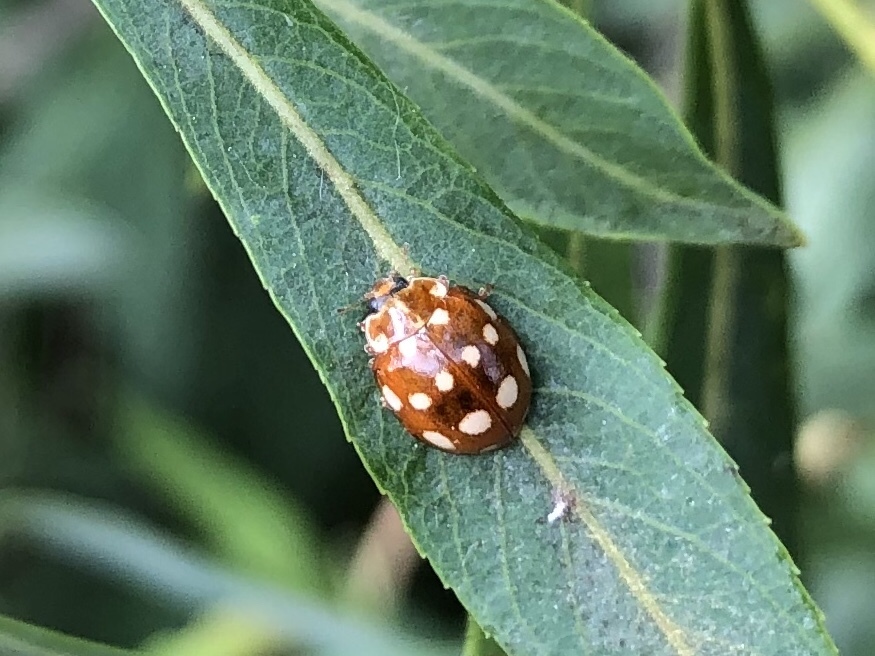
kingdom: Animalia
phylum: Arthropoda
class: Insecta
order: Coleoptera
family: Coccinellidae
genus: Calvia
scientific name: Calvia quatuordecimguttata
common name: Cream-spot ladybird
